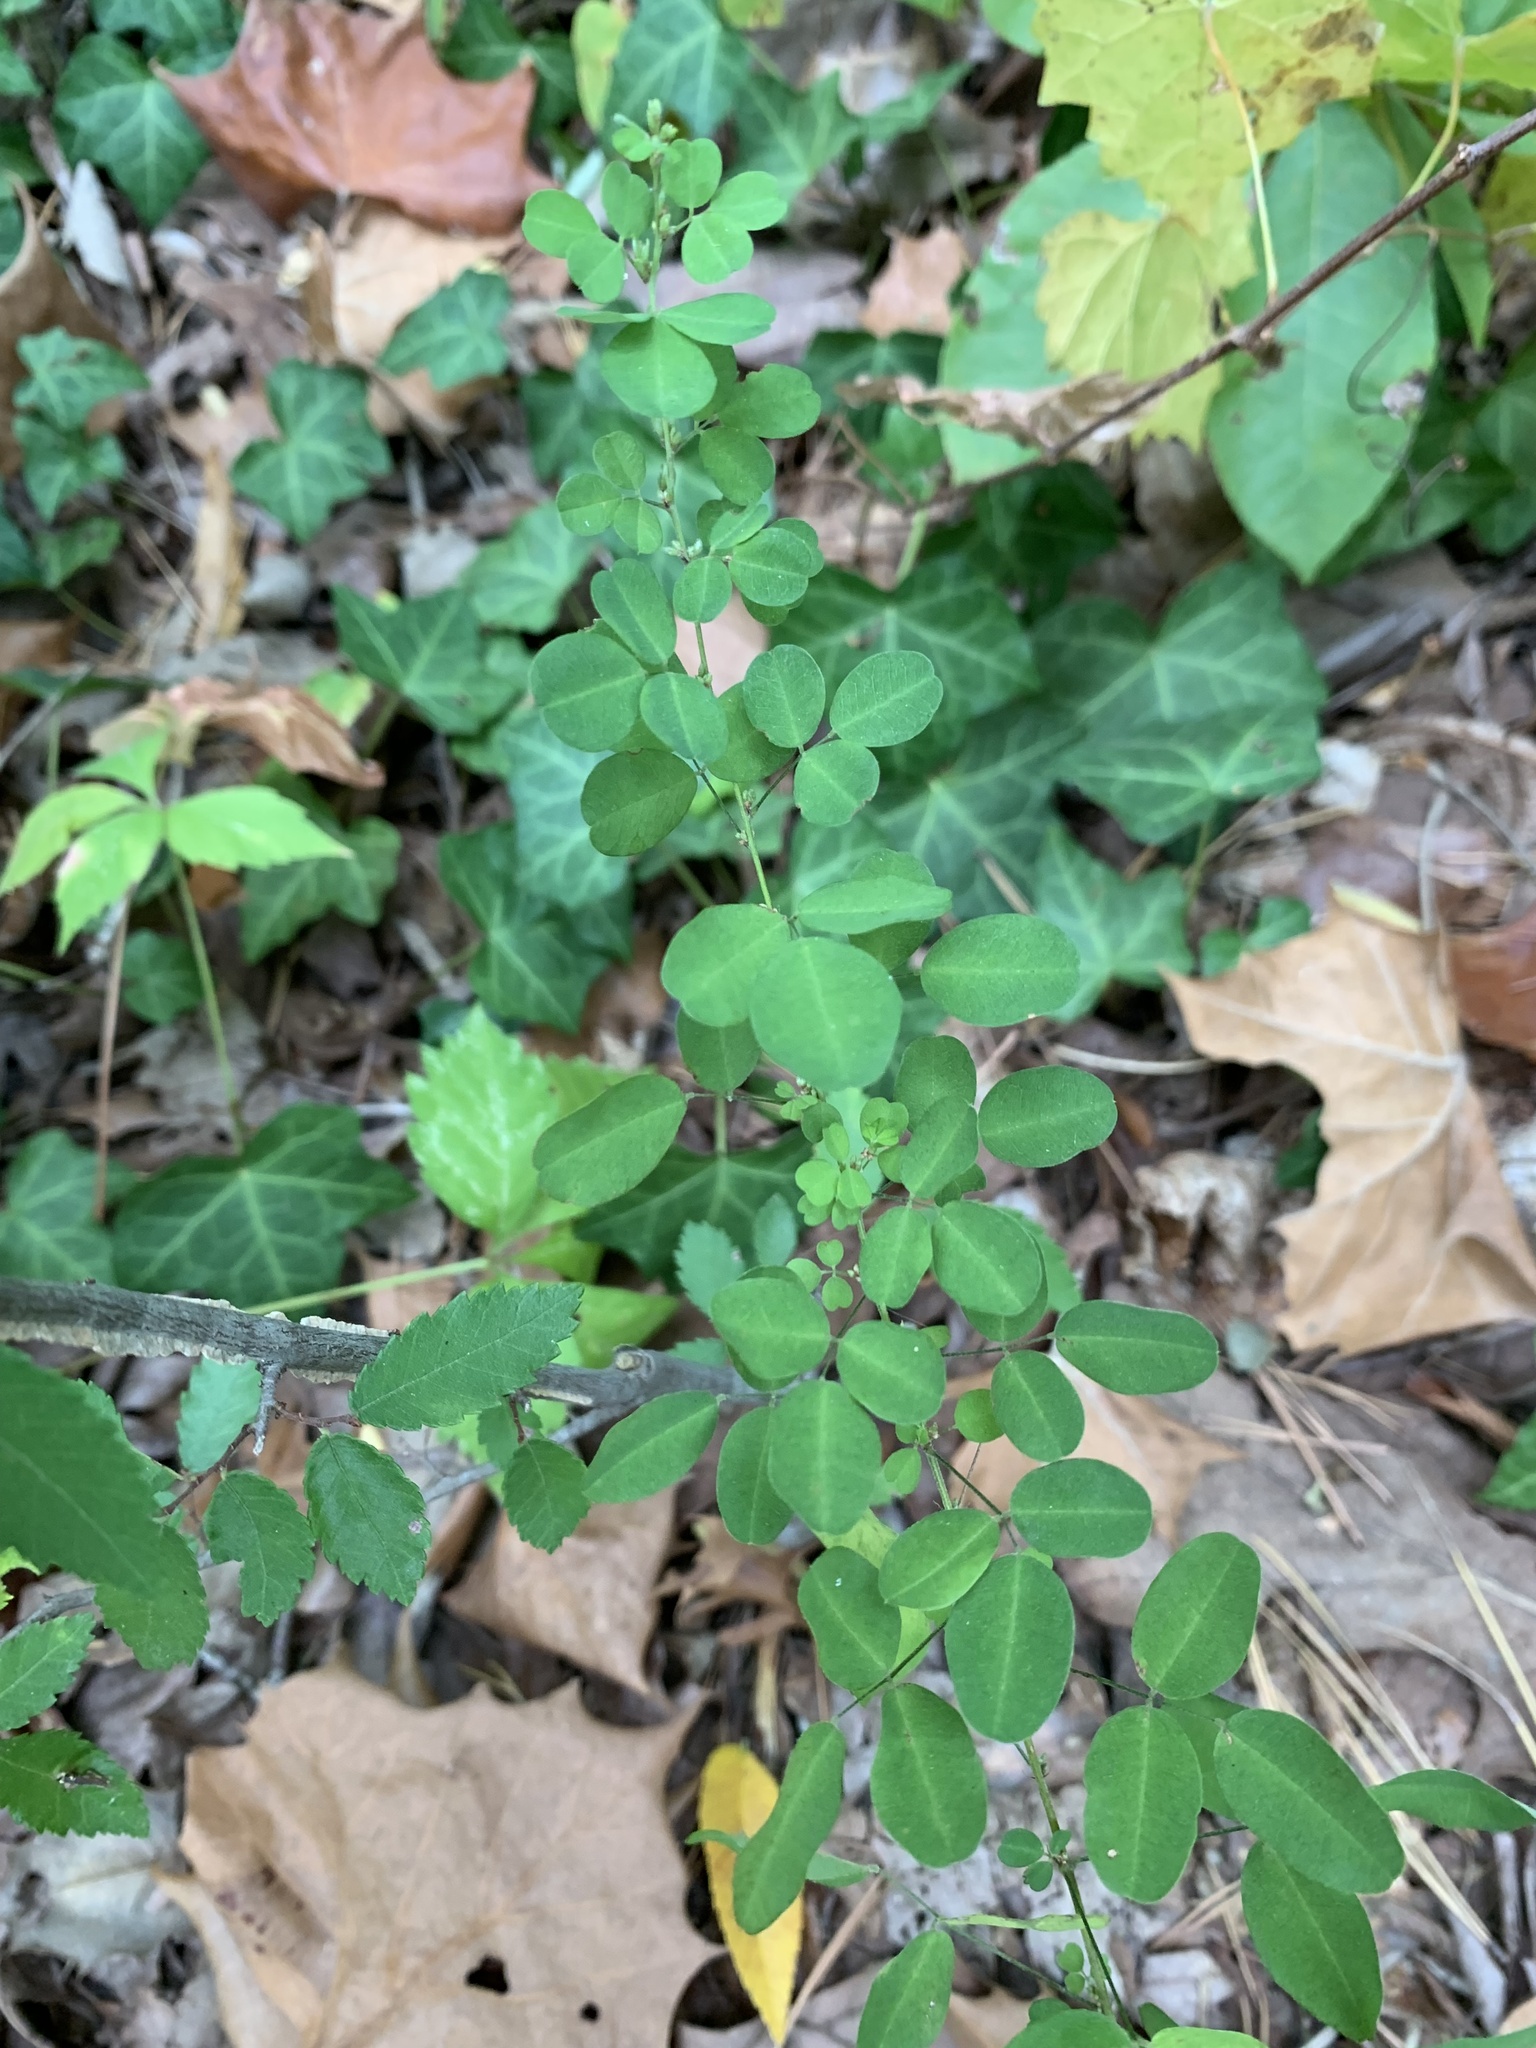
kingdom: Plantae
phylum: Tracheophyta
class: Magnoliopsida
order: Fabales
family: Fabaceae
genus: Lespedeza
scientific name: Lespedeza violacea
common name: Wand bush-clover
